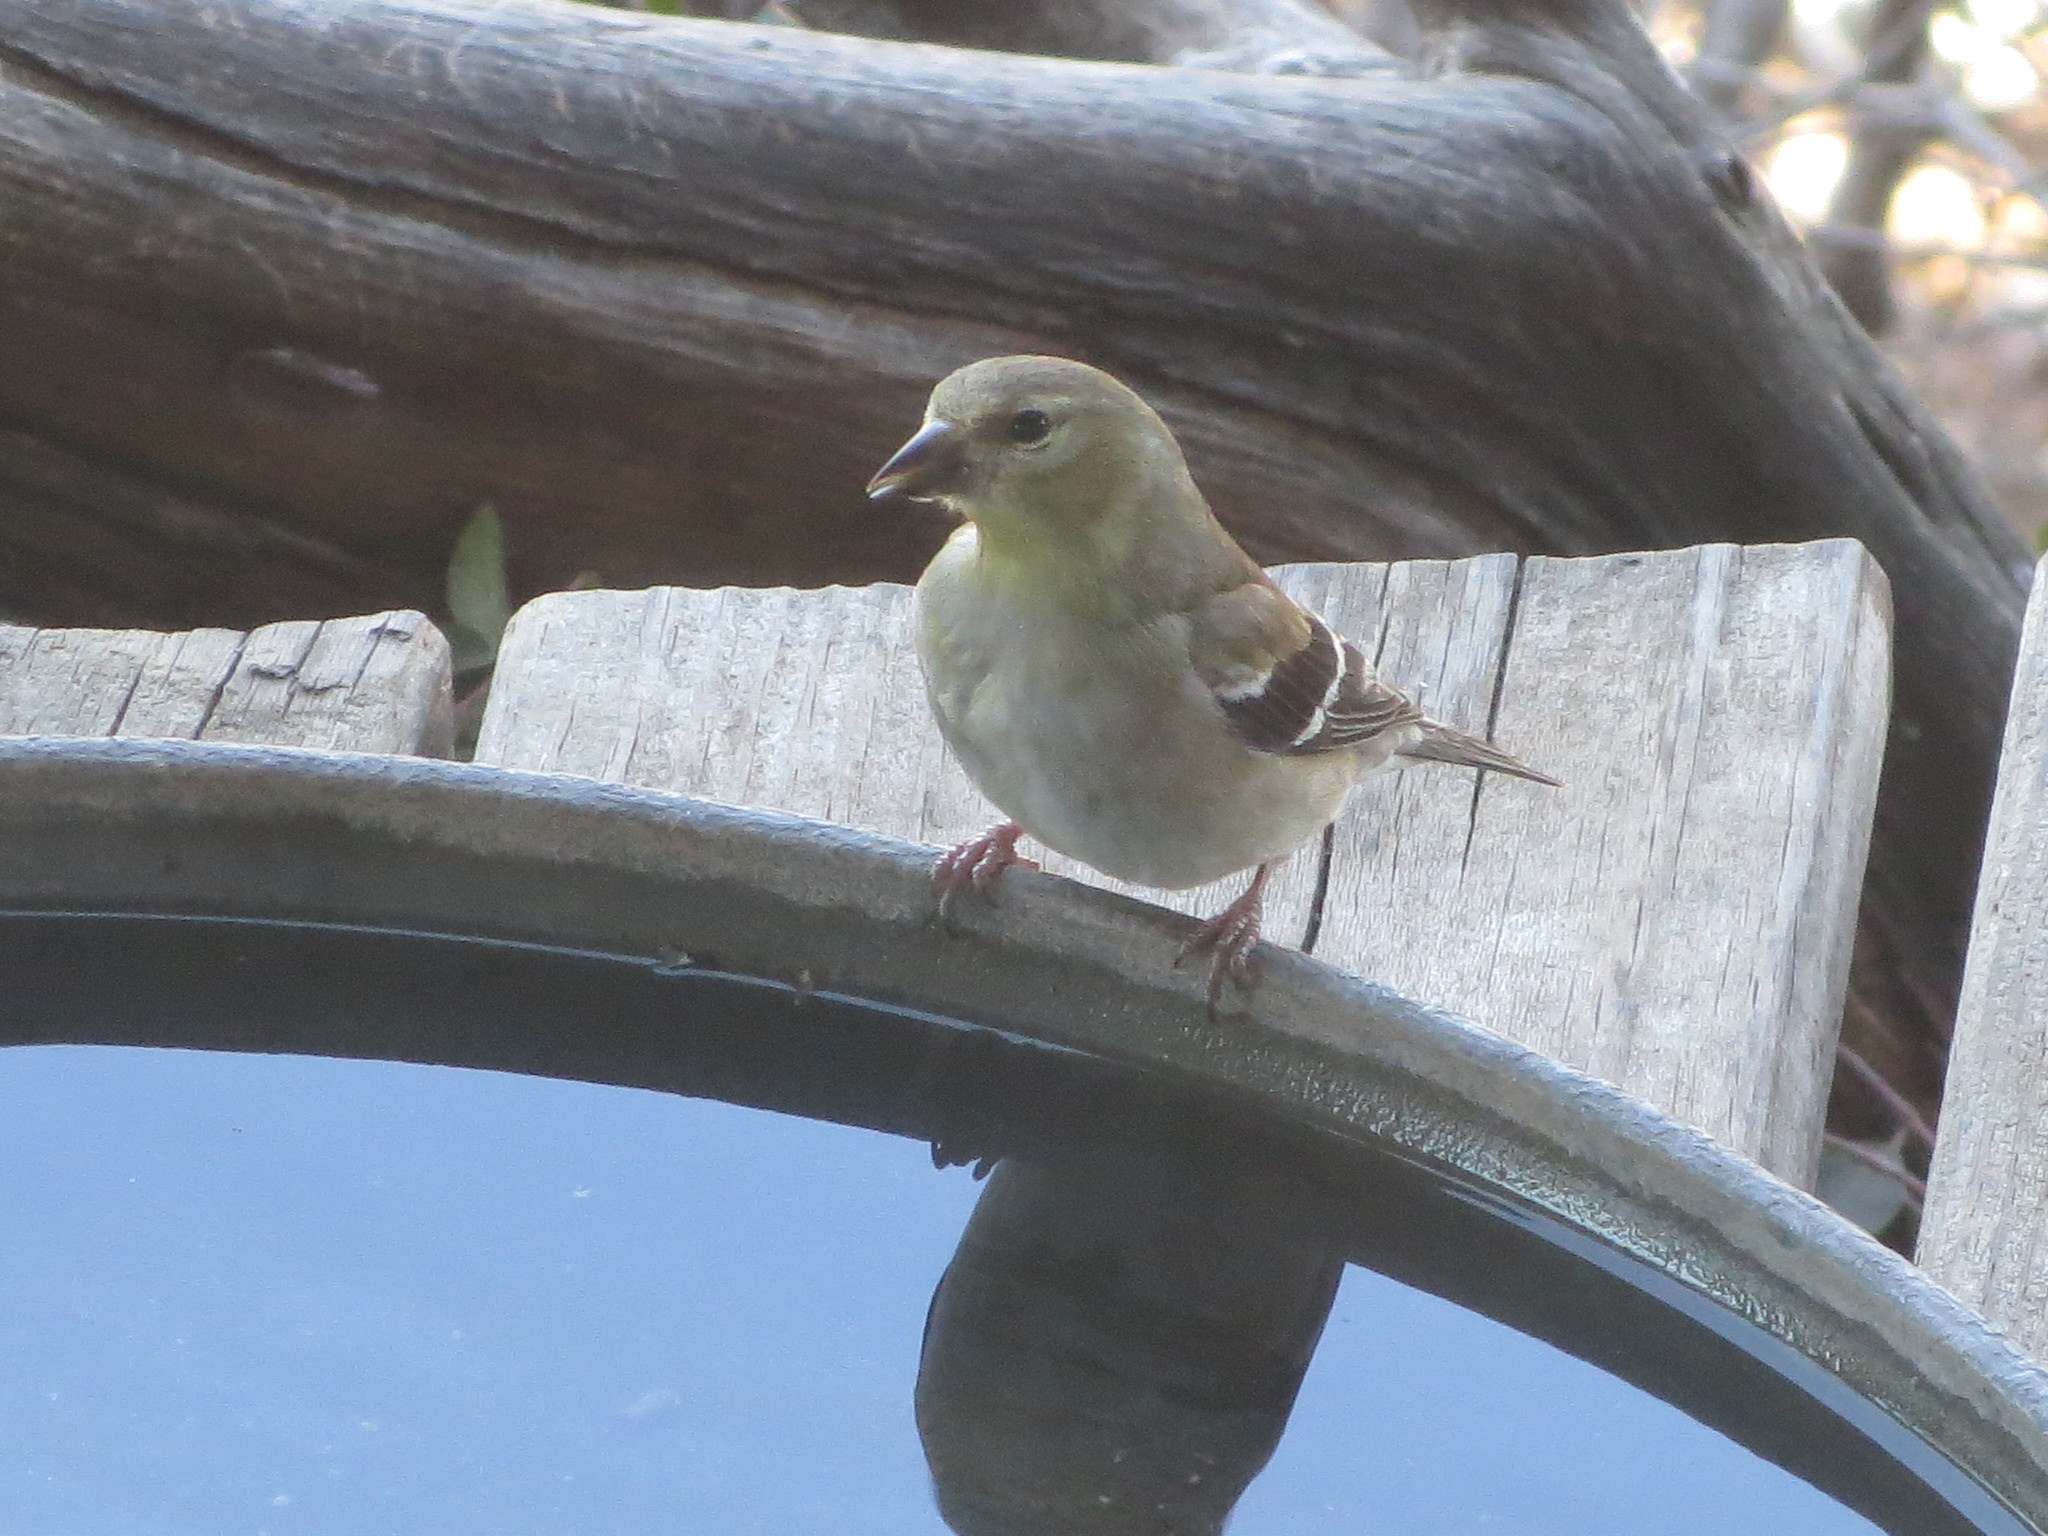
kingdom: Animalia
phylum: Chordata
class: Aves
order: Passeriformes
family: Fringillidae
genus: Spinus
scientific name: Spinus tristis
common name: American goldfinch
